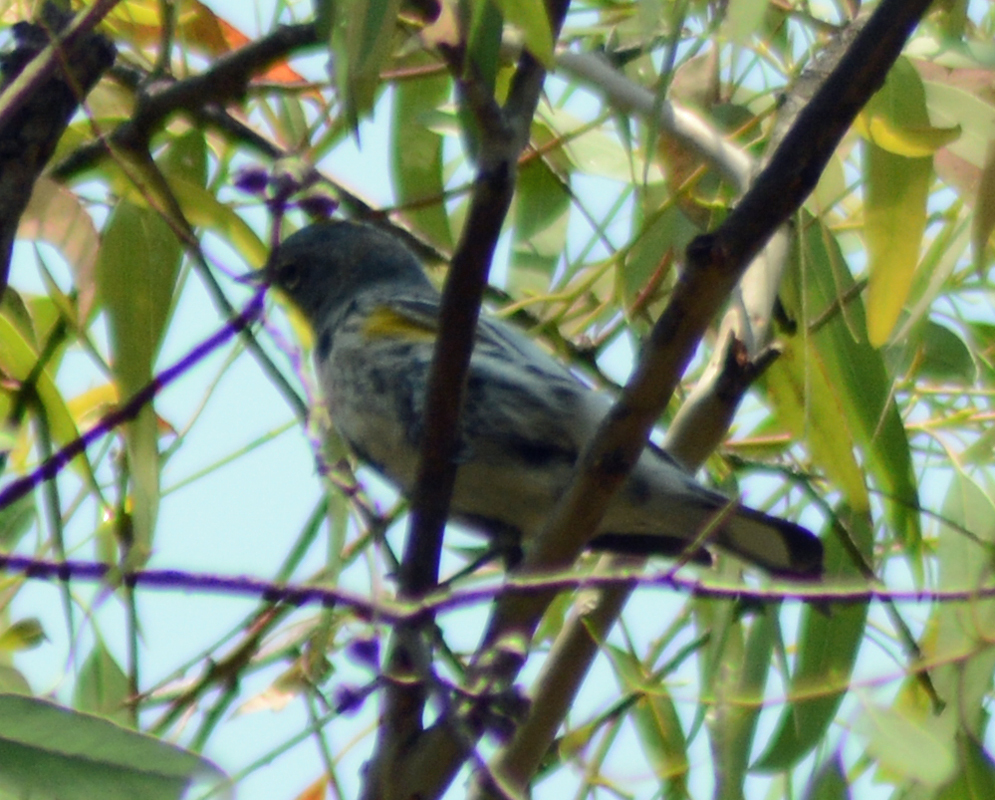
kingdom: Animalia
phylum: Chordata
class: Aves
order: Passeriformes
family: Parulidae
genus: Setophaga
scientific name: Setophaga coronata
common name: Myrtle warbler
